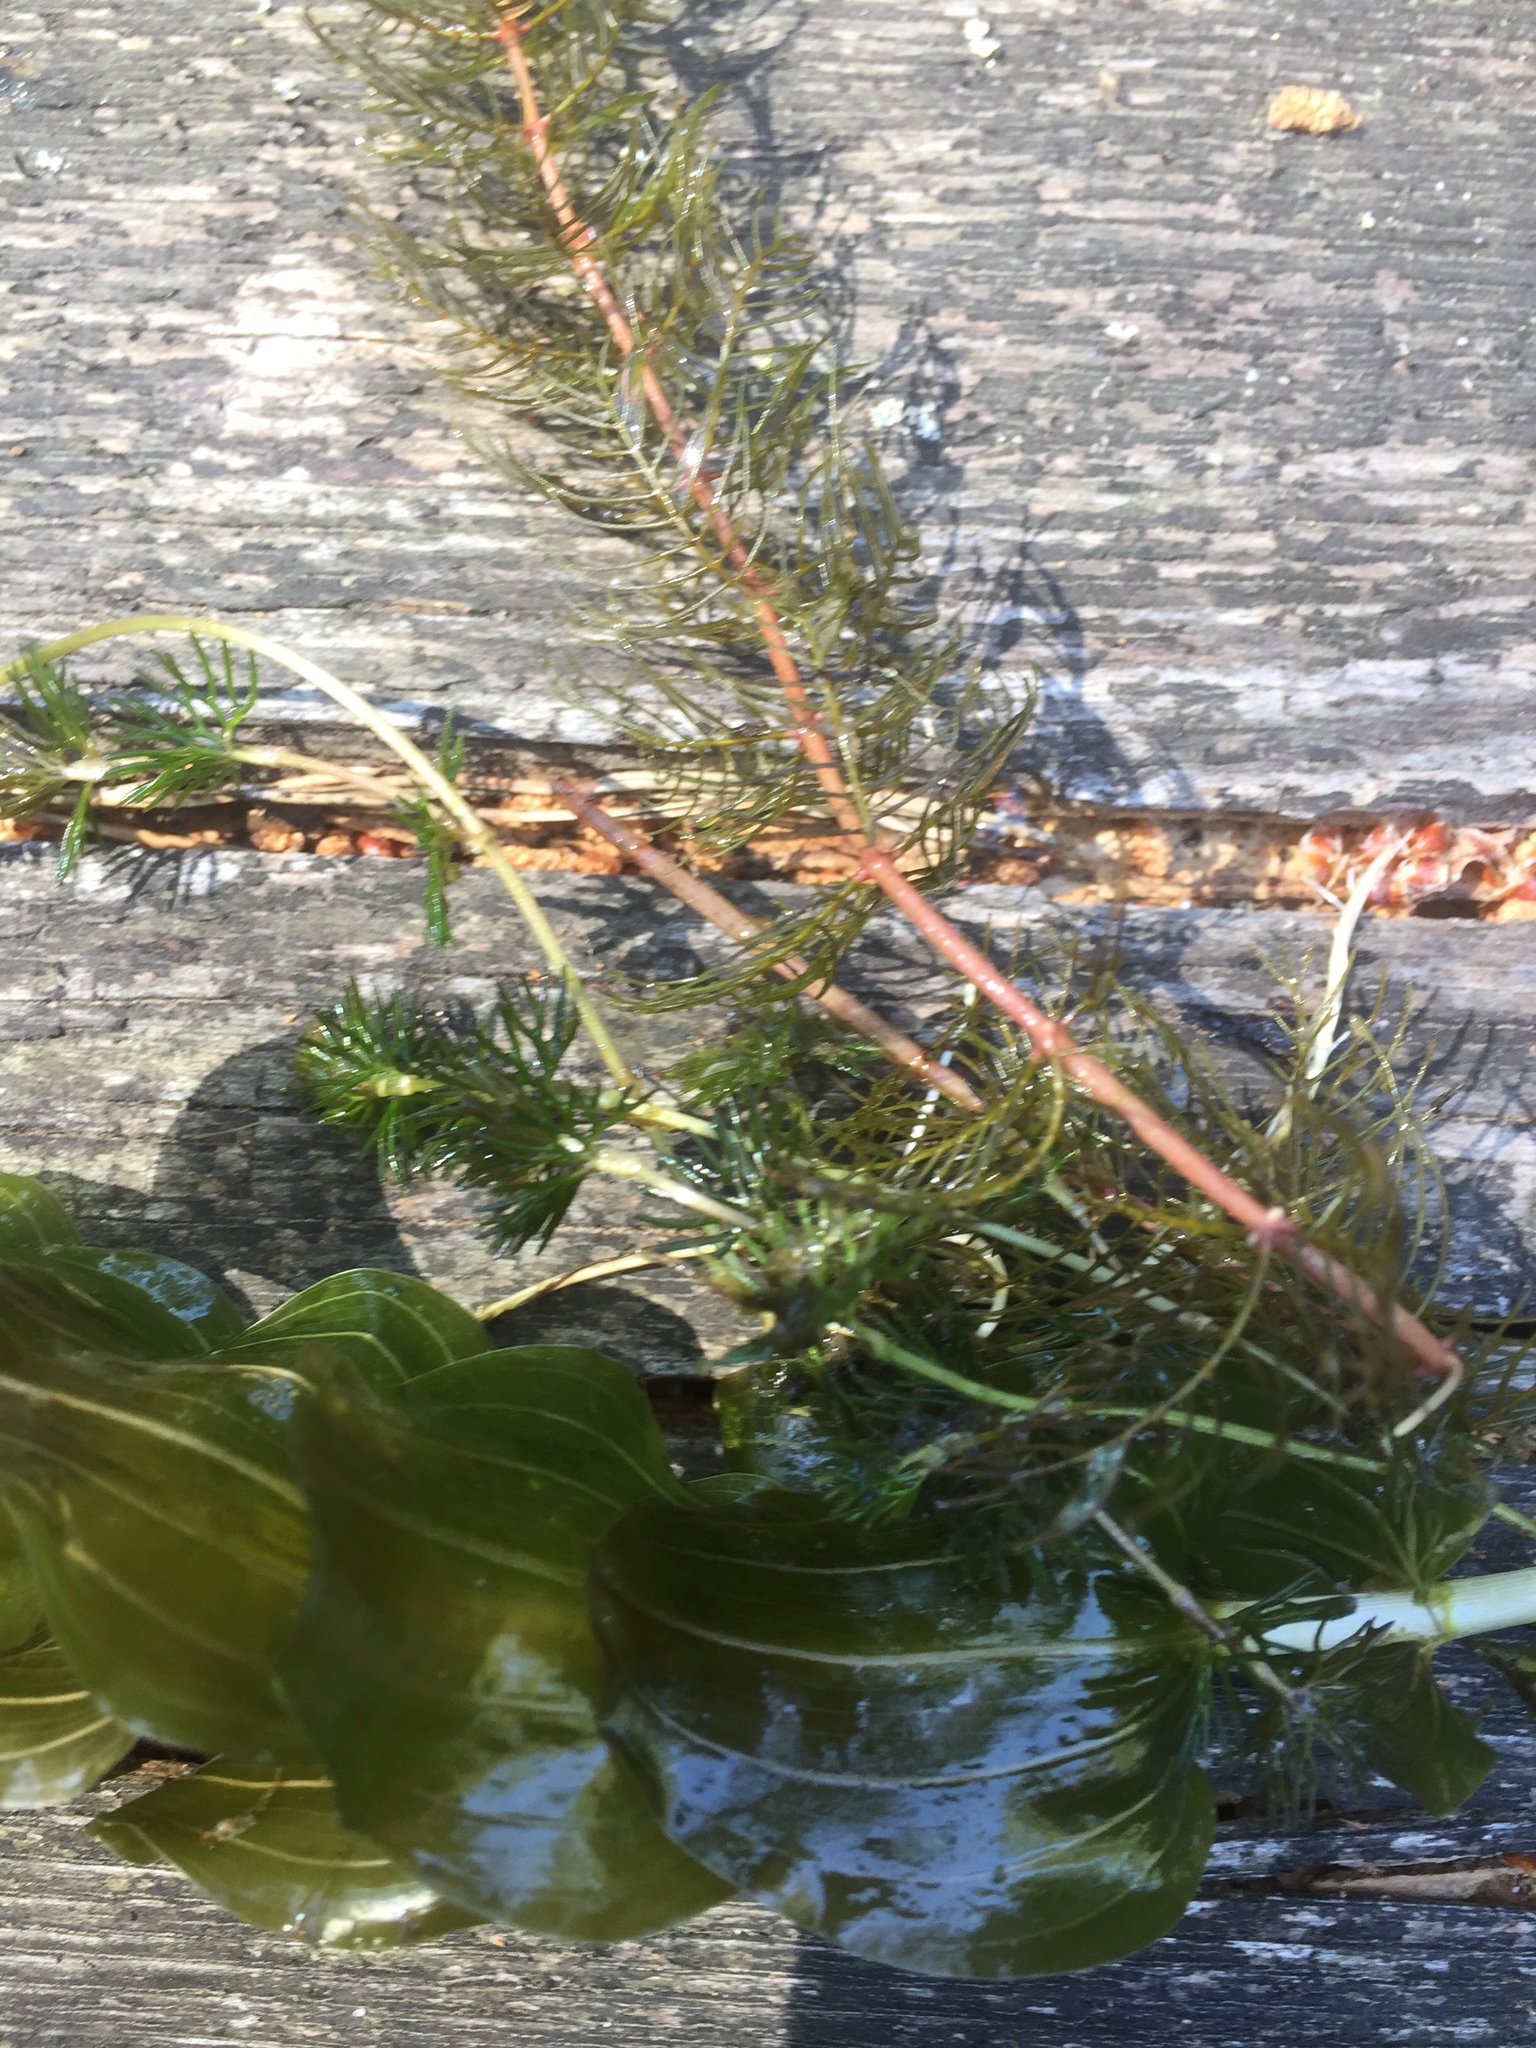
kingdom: Plantae
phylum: Tracheophyta
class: Magnoliopsida
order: Ranunculales
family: Ranunculaceae
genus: Ranunculus
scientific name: Ranunculus circinatus
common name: Fan-leaved water-crowfoot
